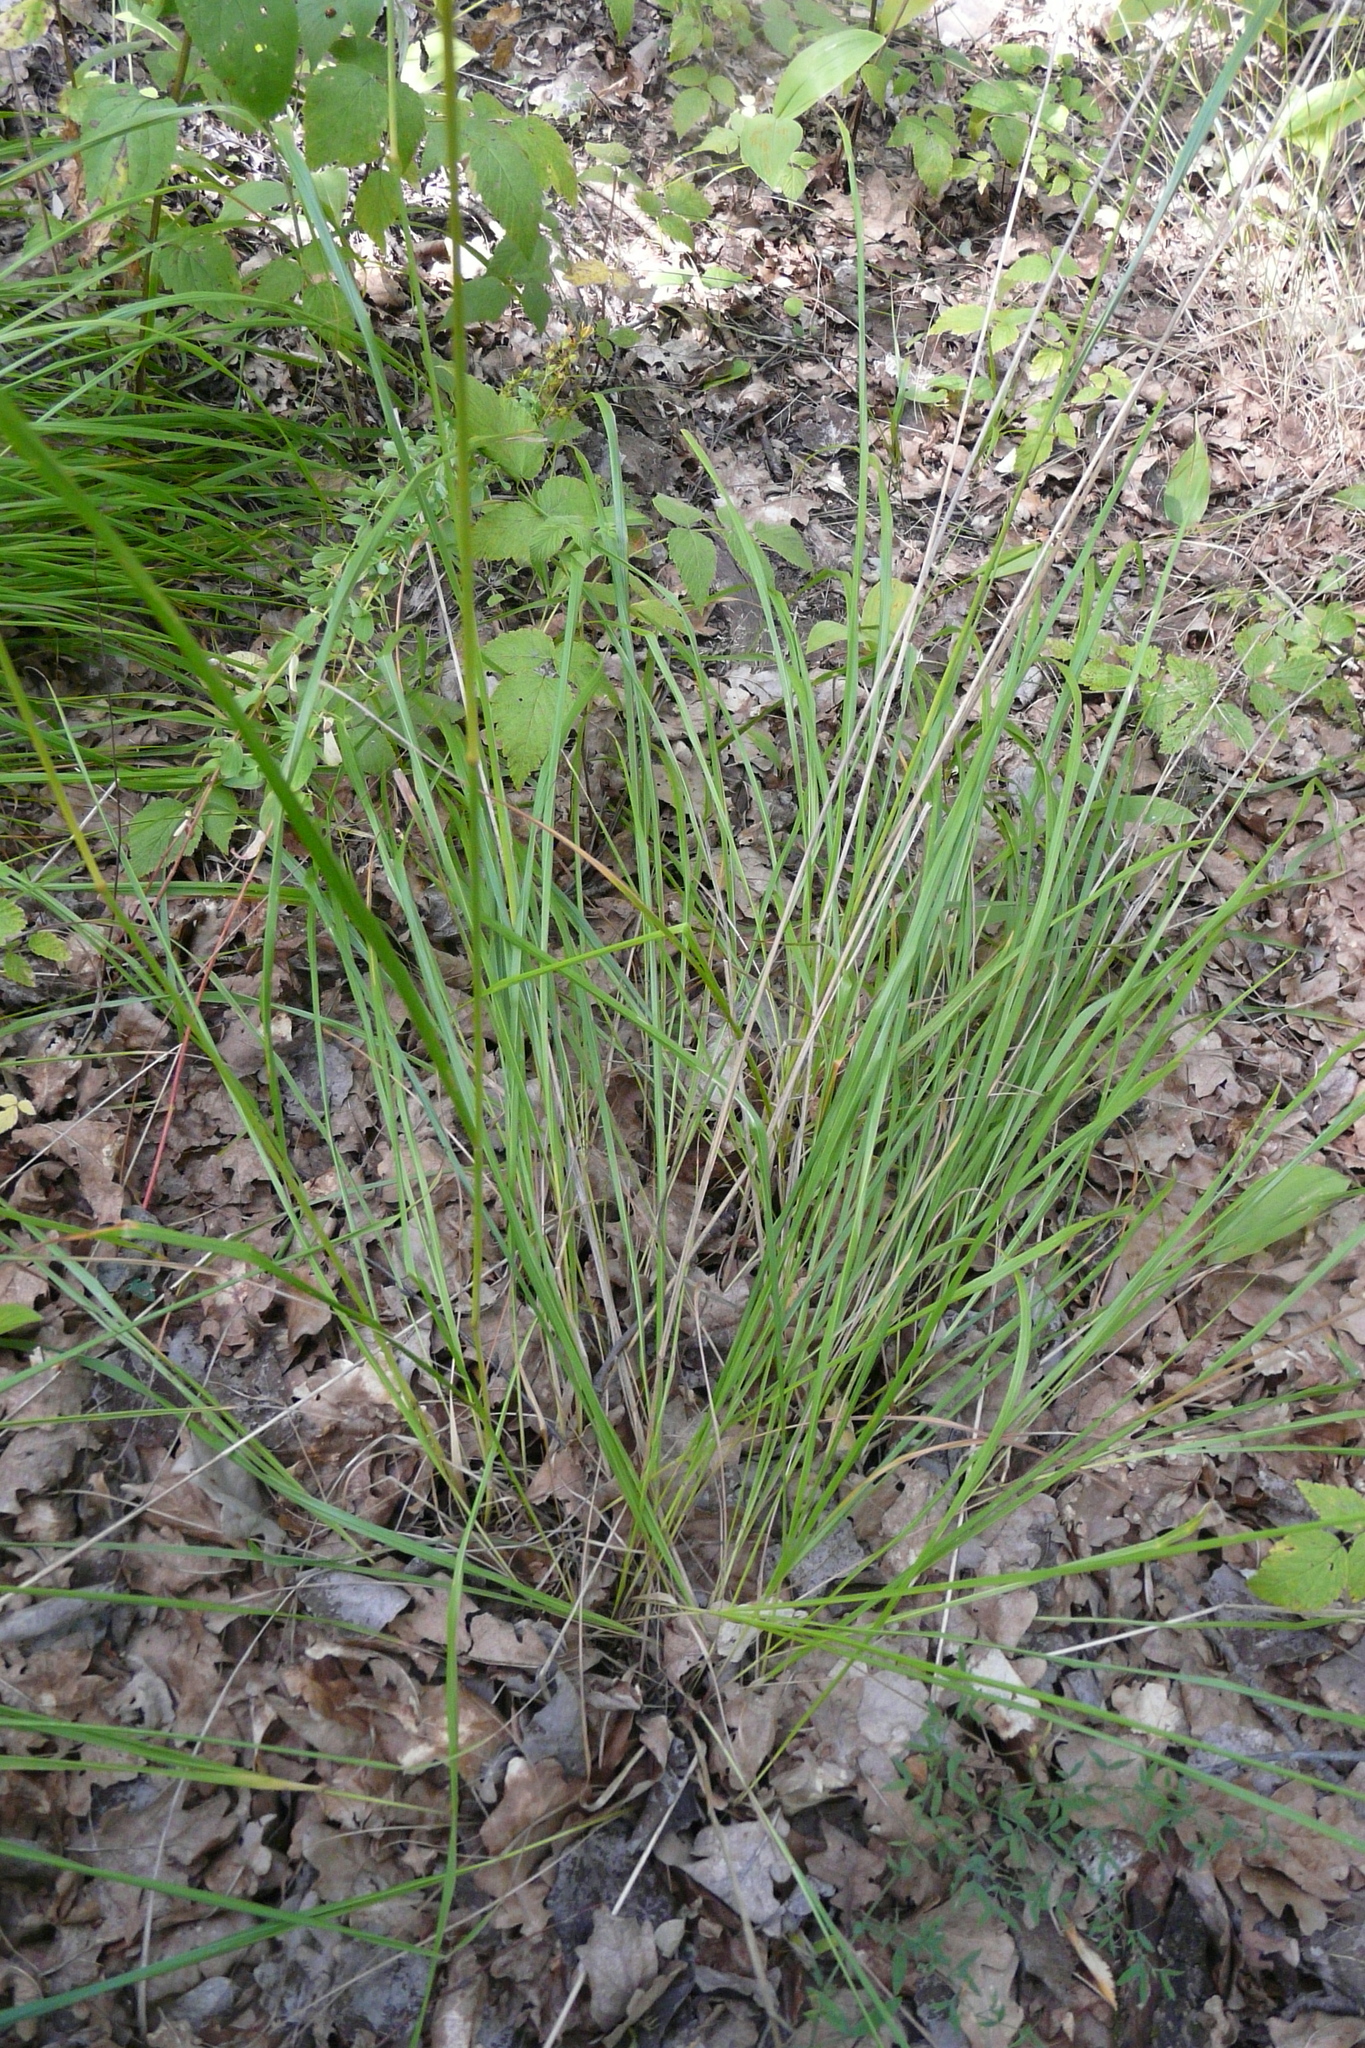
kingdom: Plantae
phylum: Tracheophyta
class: Liliopsida
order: Poales
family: Poaceae
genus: Calamagrostis
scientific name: Calamagrostis arundinacea
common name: Metskastik
